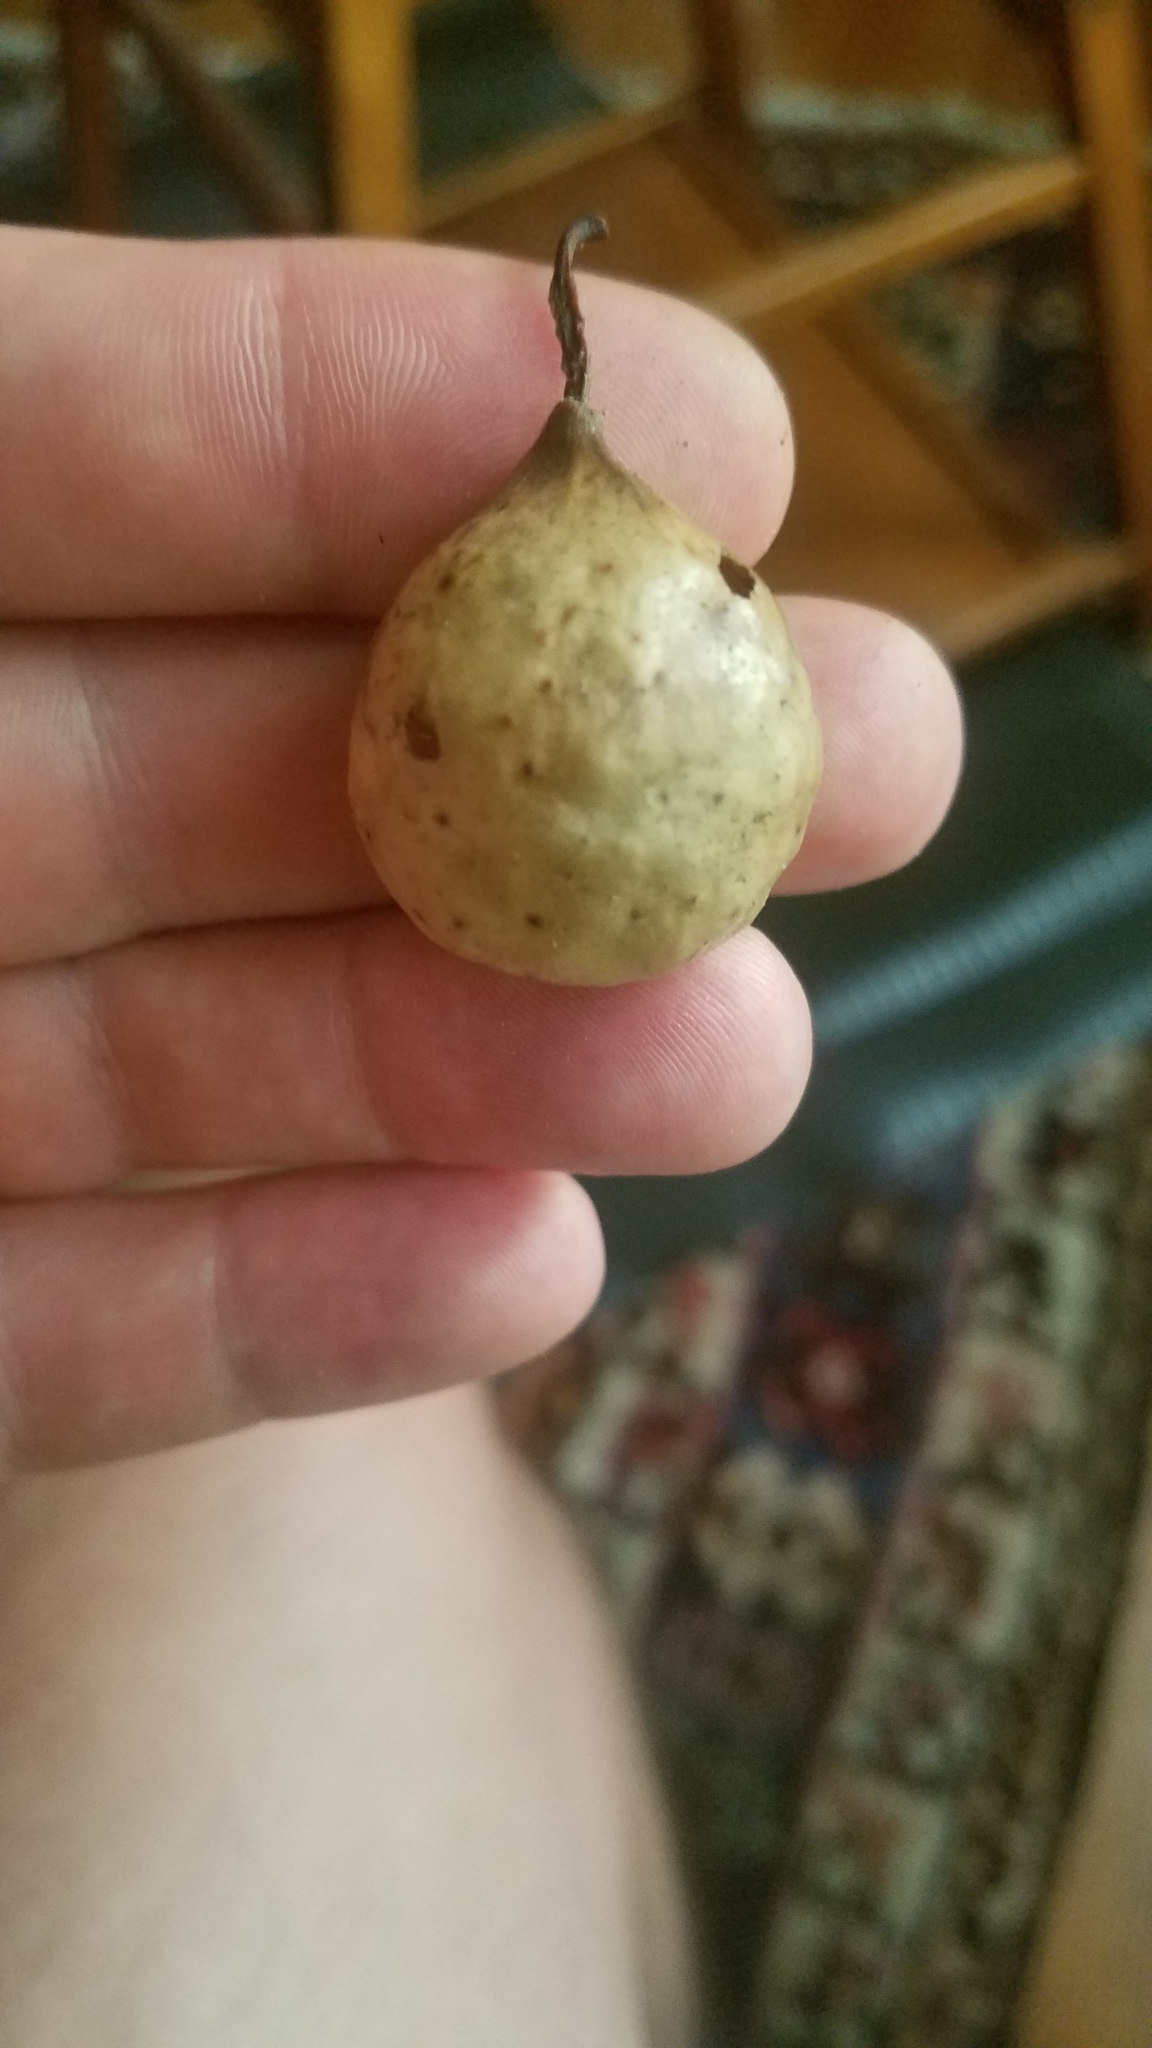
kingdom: Animalia
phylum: Arthropoda
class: Insecta
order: Hymenoptera
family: Cynipidae
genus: Amphibolips
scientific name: Amphibolips
